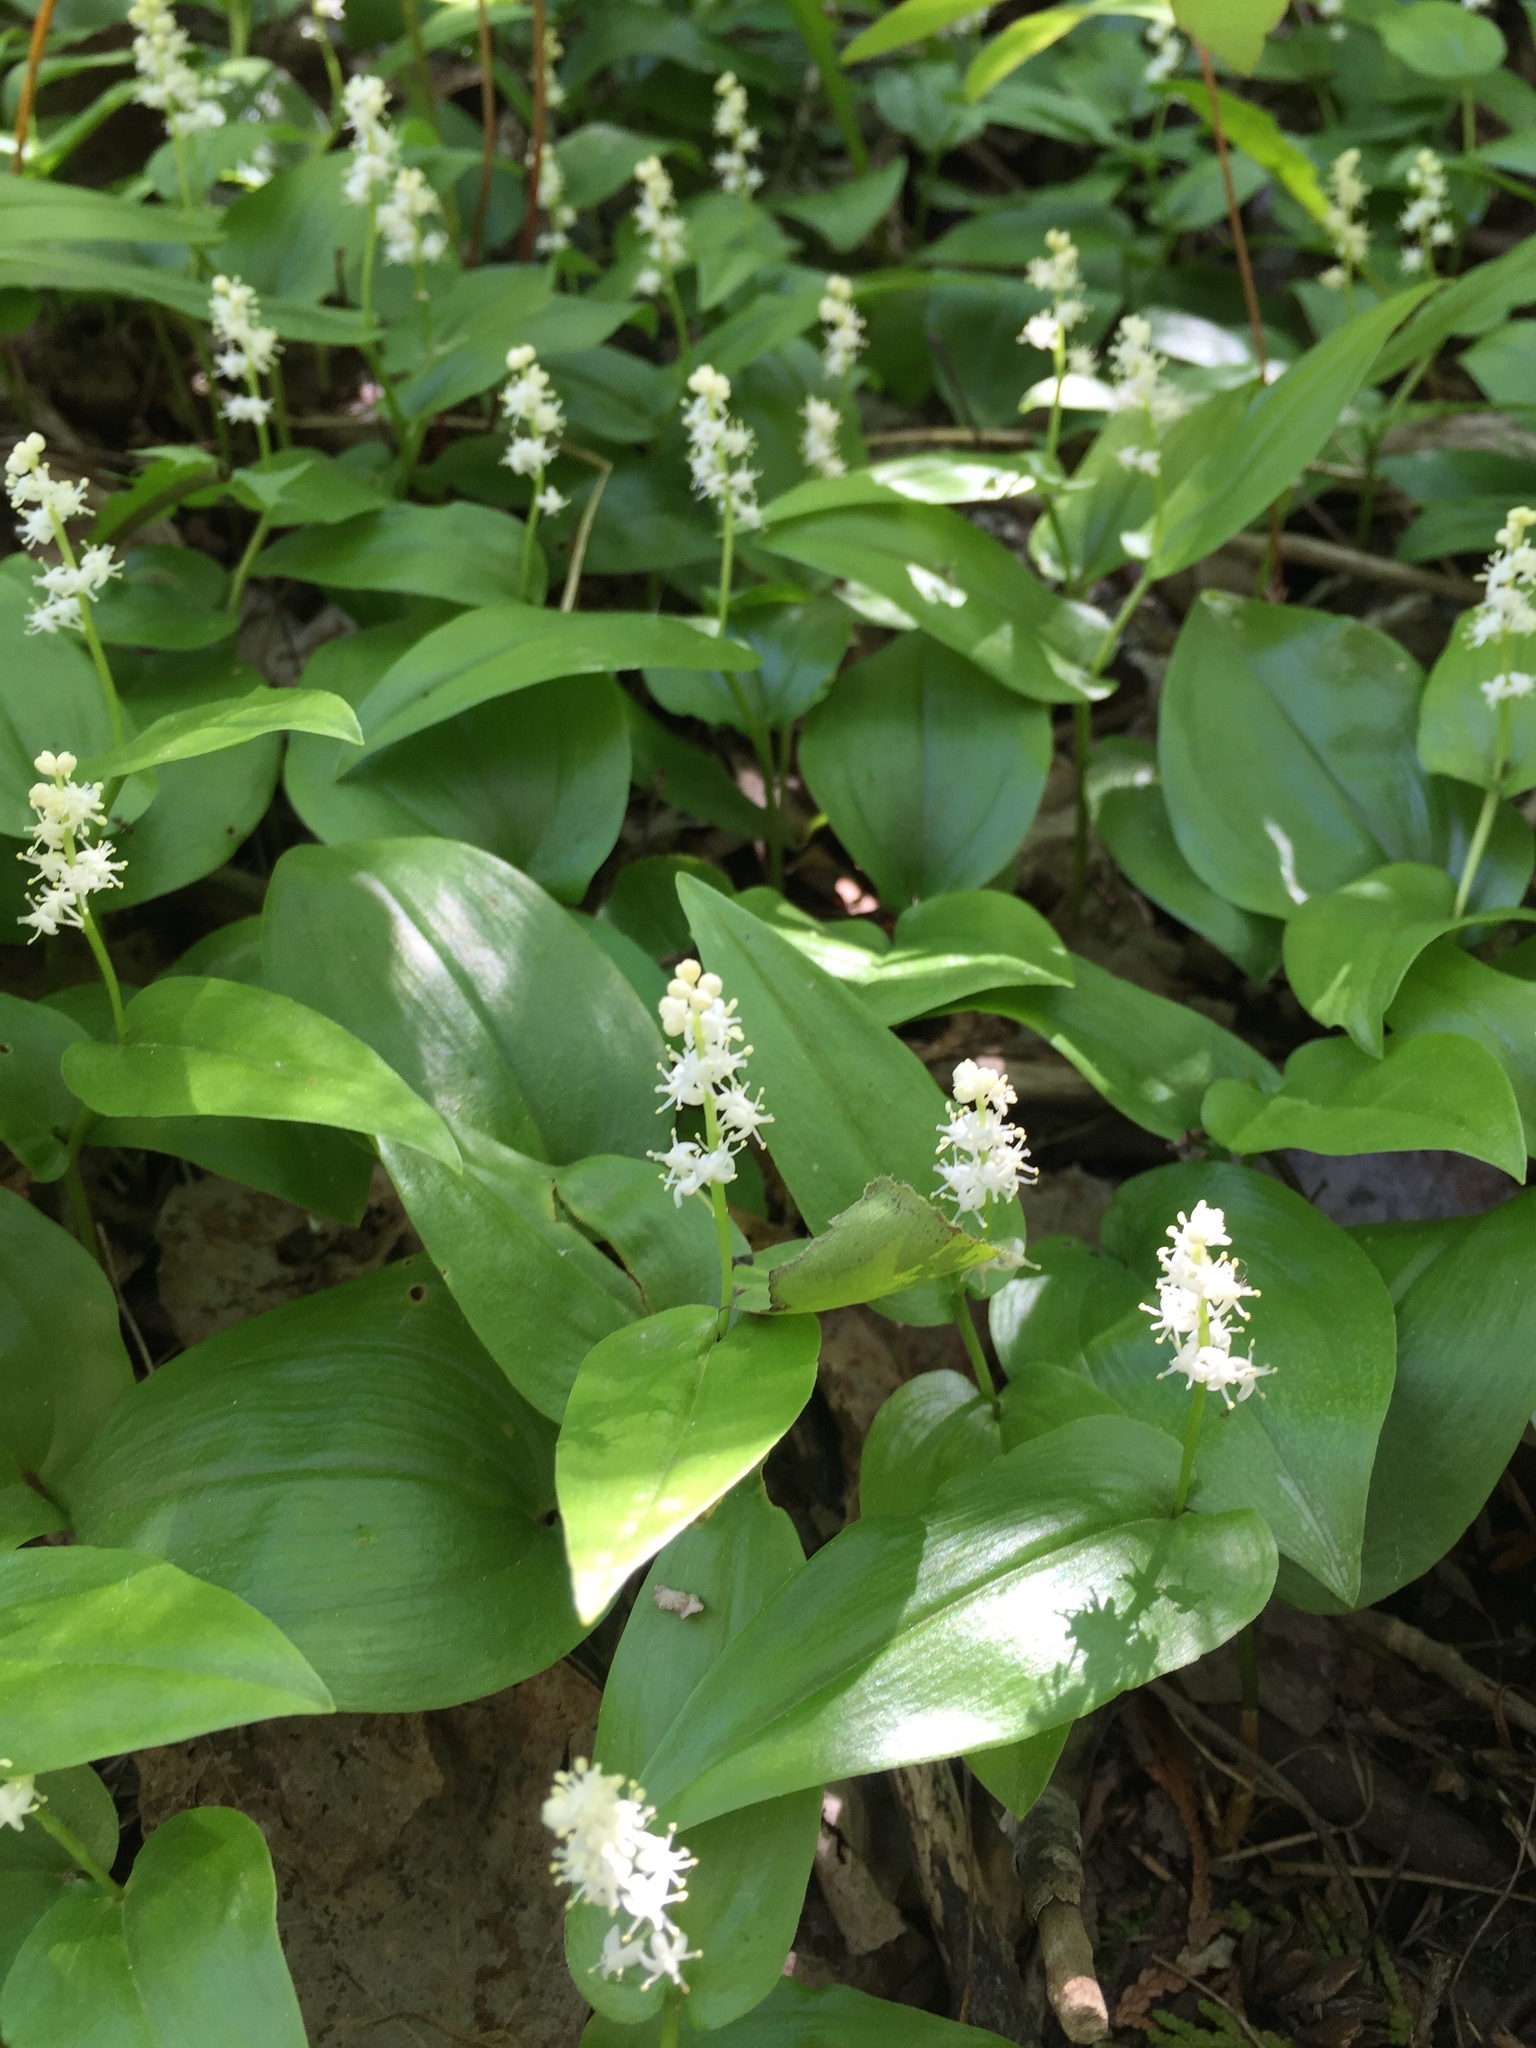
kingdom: Plantae
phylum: Tracheophyta
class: Liliopsida
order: Asparagales
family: Asparagaceae
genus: Maianthemum
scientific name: Maianthemum canadense
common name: False lily-of-the-valley
